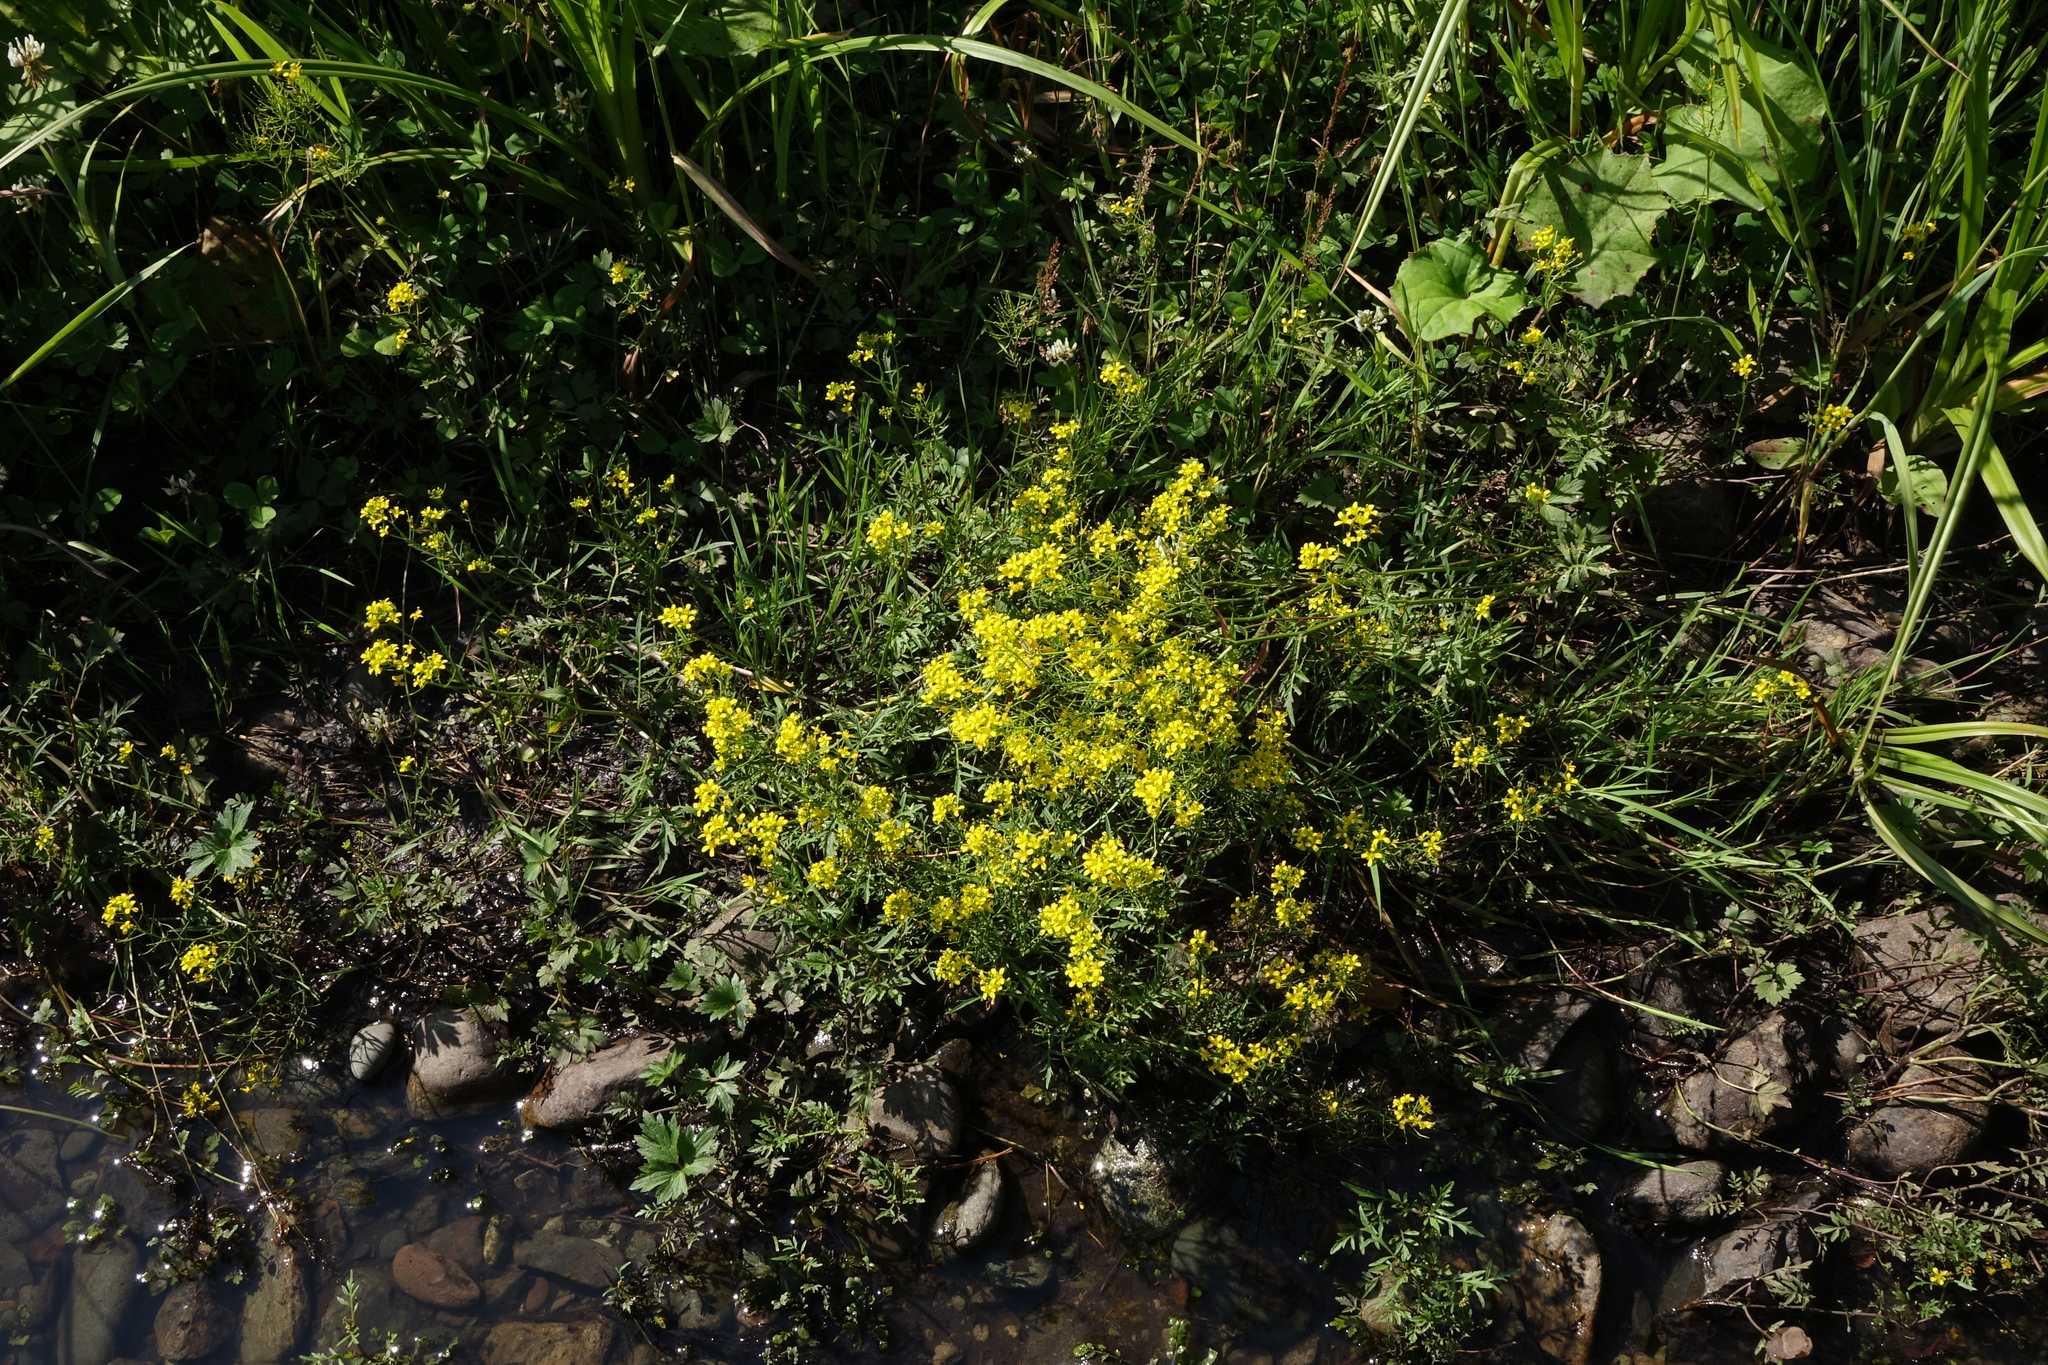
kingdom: Plantae
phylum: Tracheophyta
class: Magnoliopsida
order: Brassicales
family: Brassicaceae
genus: Rorippa
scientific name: Rorippa sylvestris
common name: Creeping yellowcress
